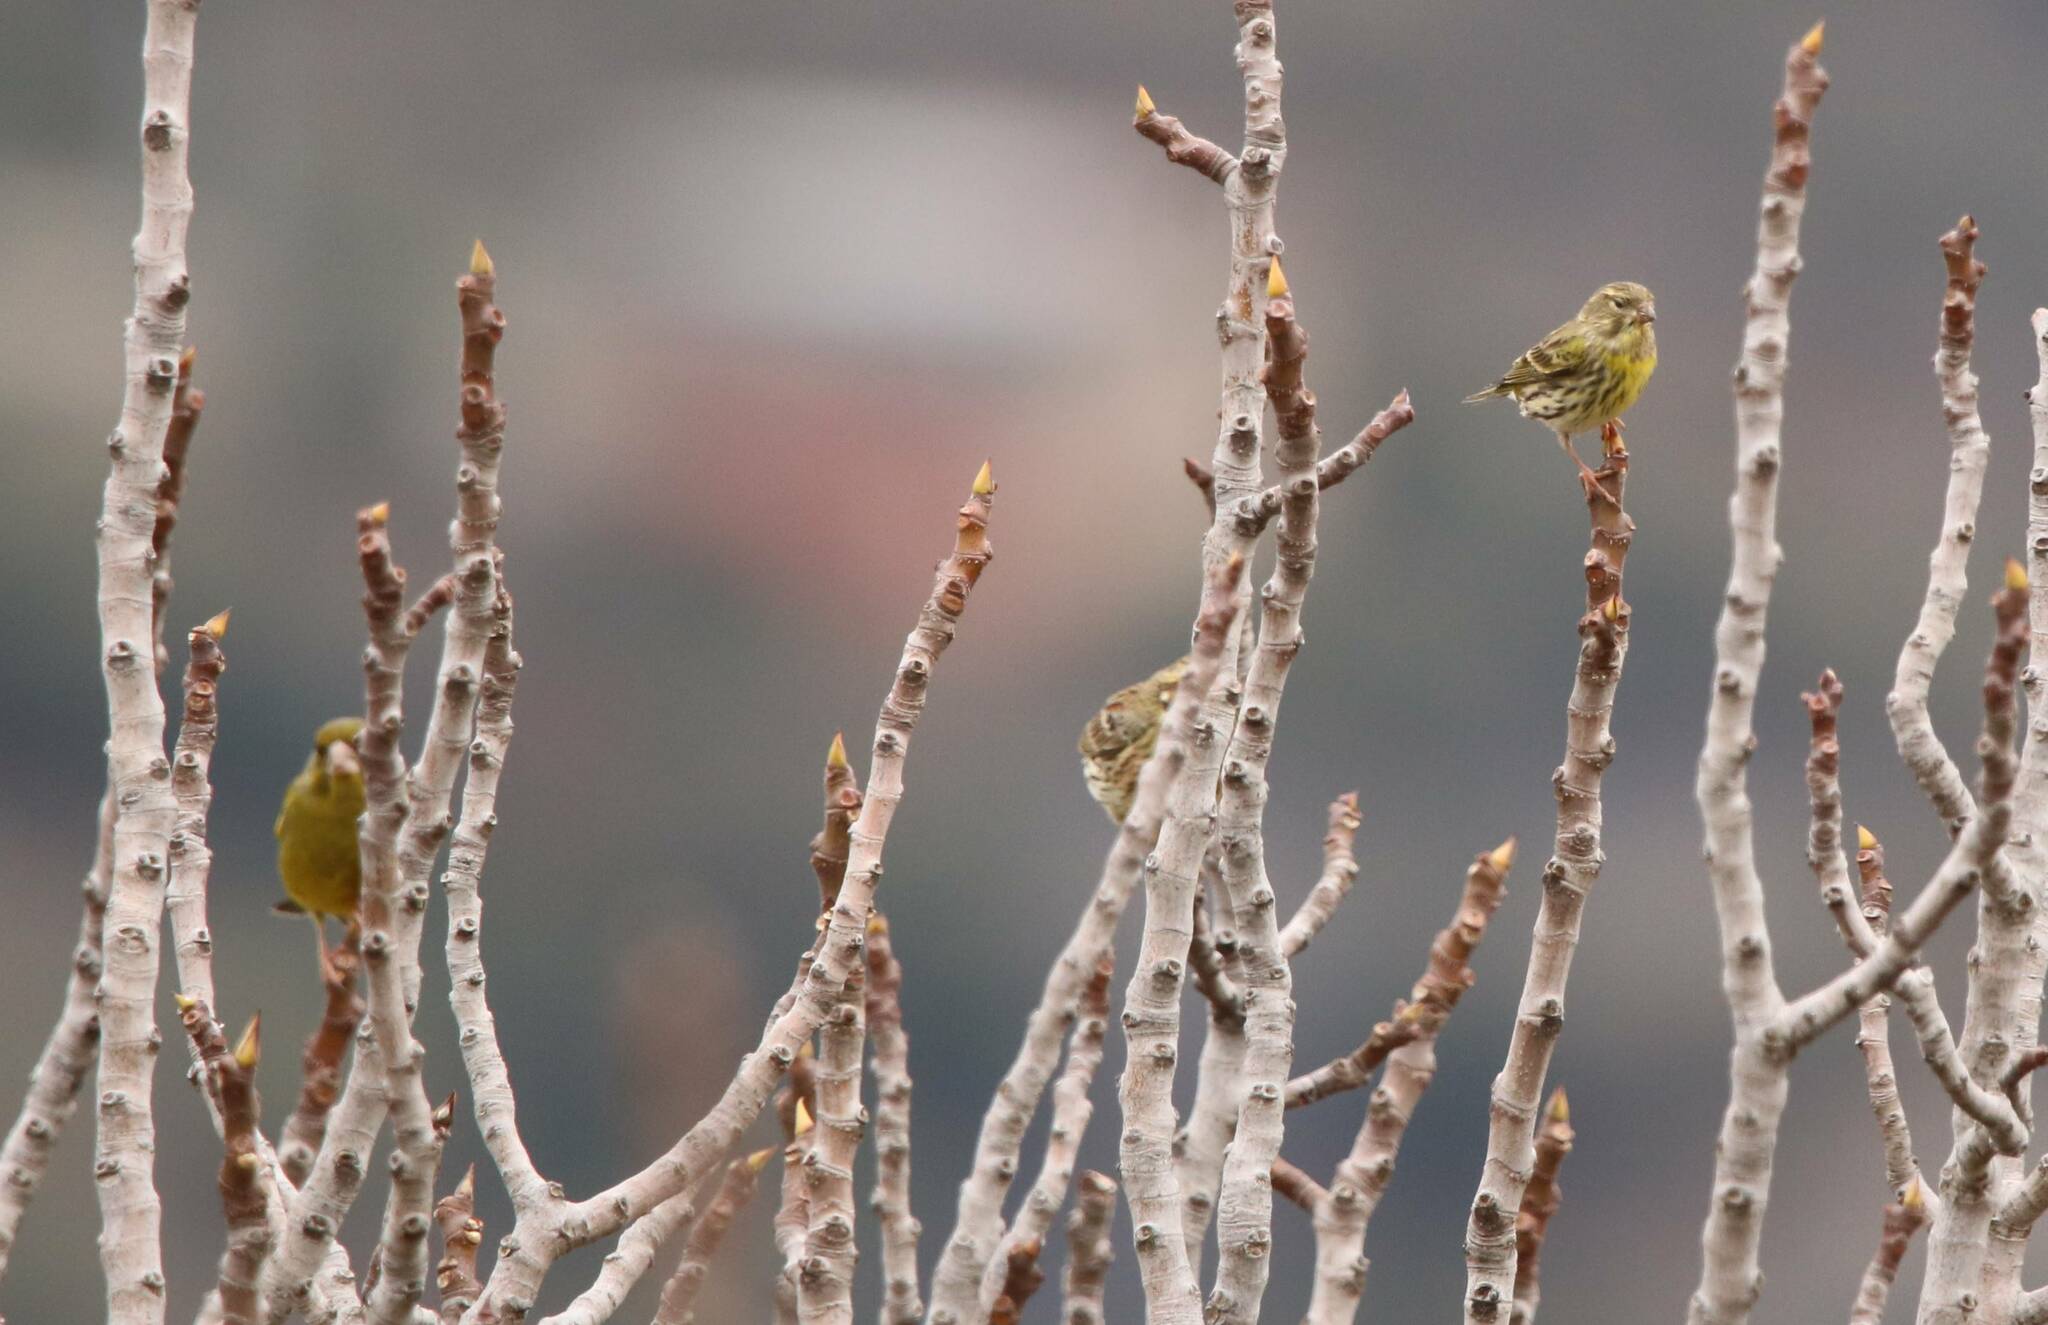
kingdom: Animalia
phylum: Chordata
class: Aves
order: Passeriformes
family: Fringillidae
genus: Serinus
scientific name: Serinus serinus
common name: European serin
